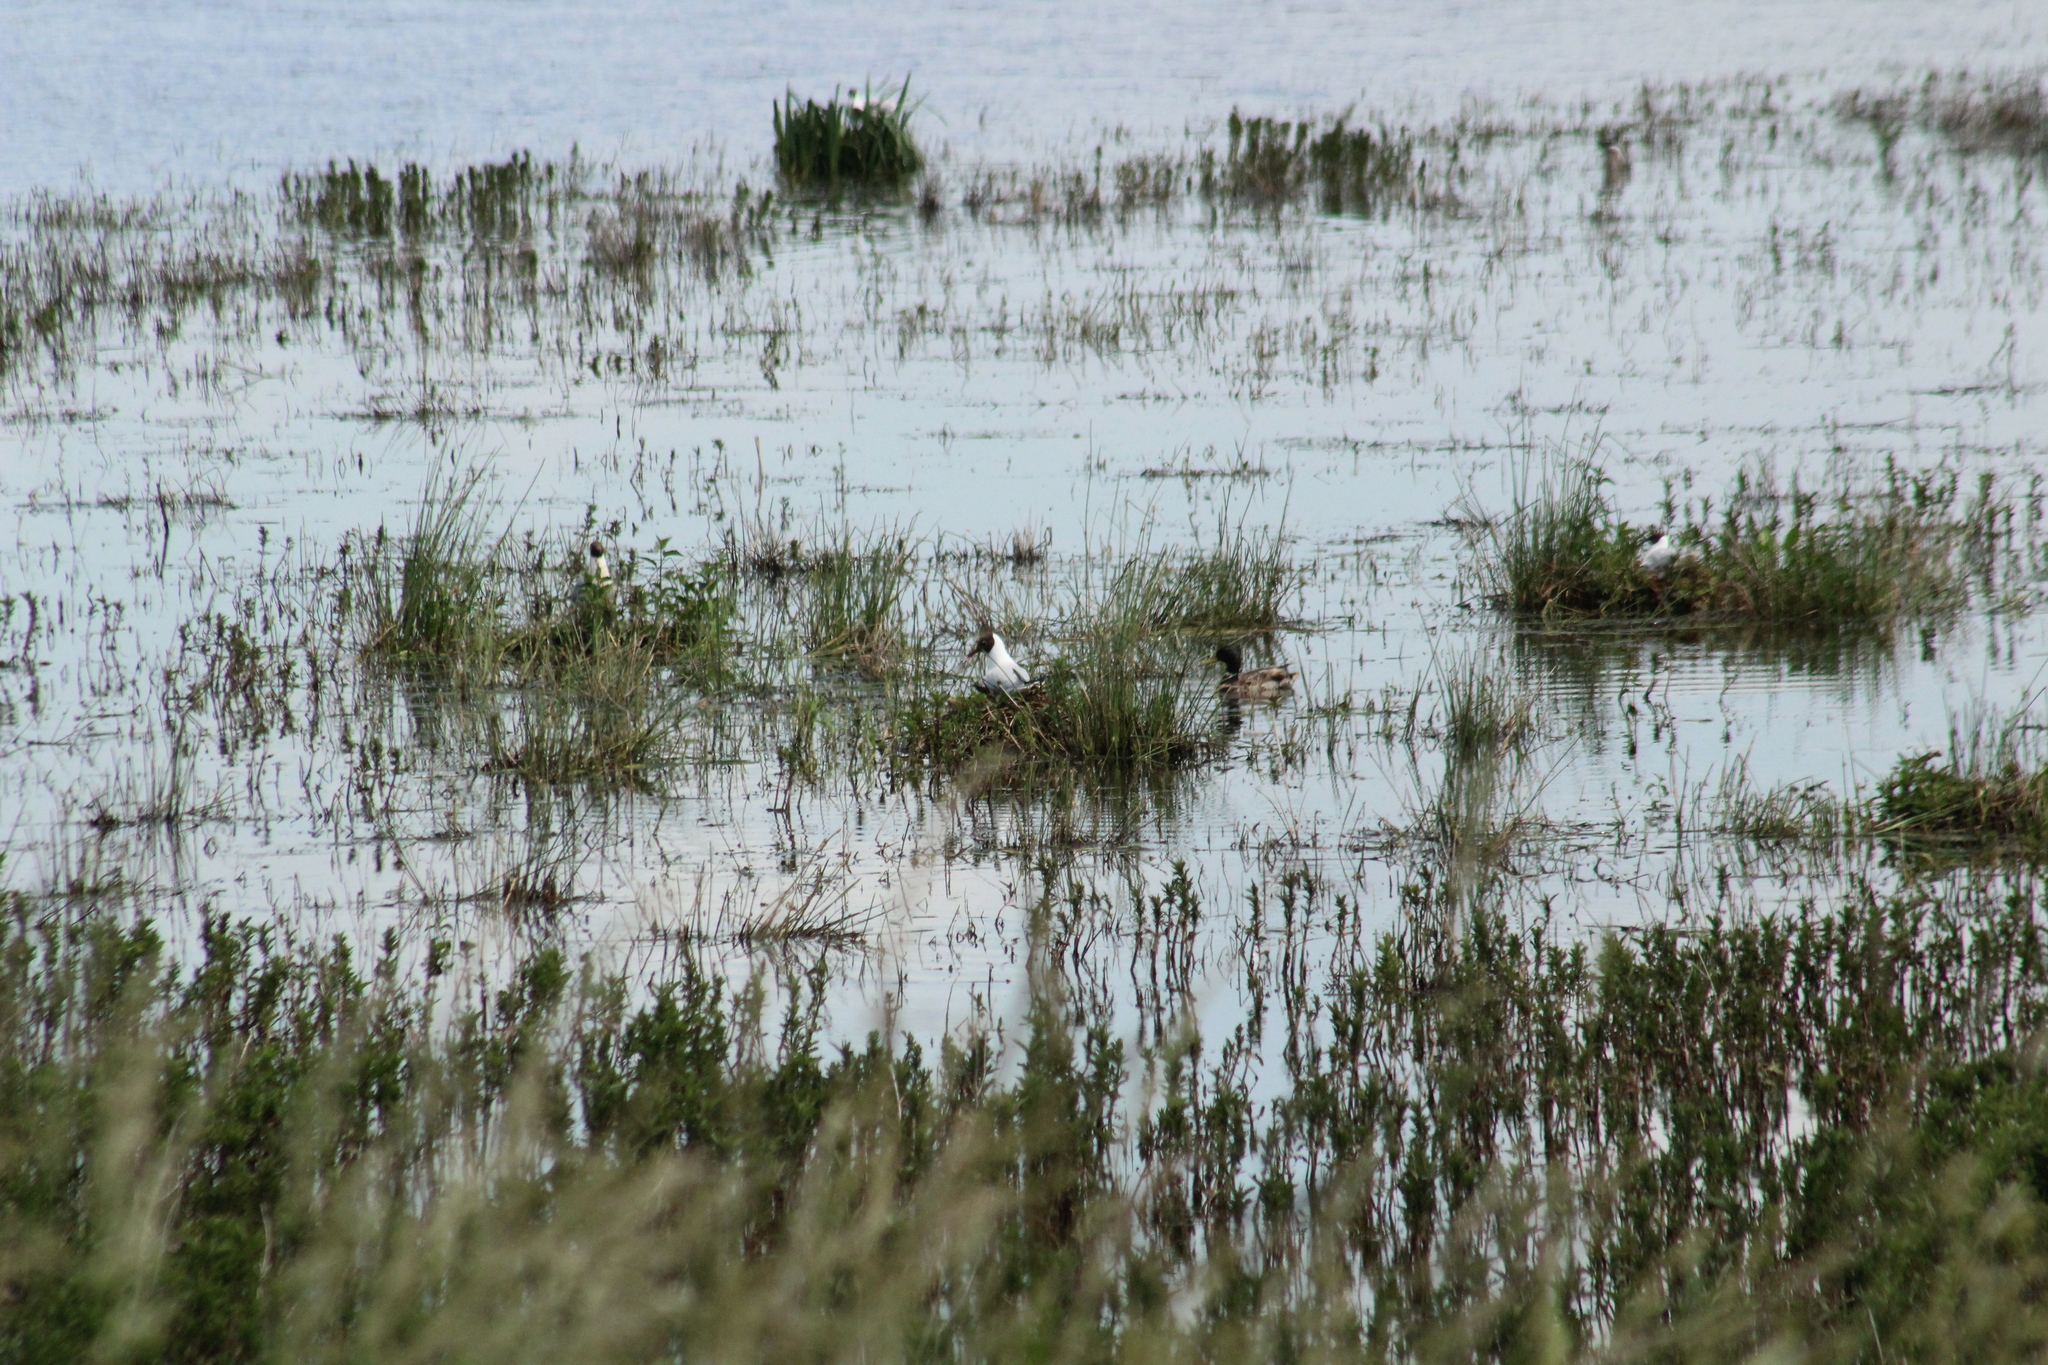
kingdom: Animalia
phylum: Chordata
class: Aves
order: Charadriiformes
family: Laridae
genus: Chroicocephalus
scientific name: Chroicocephalus ridibundus
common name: Black-headed gull
